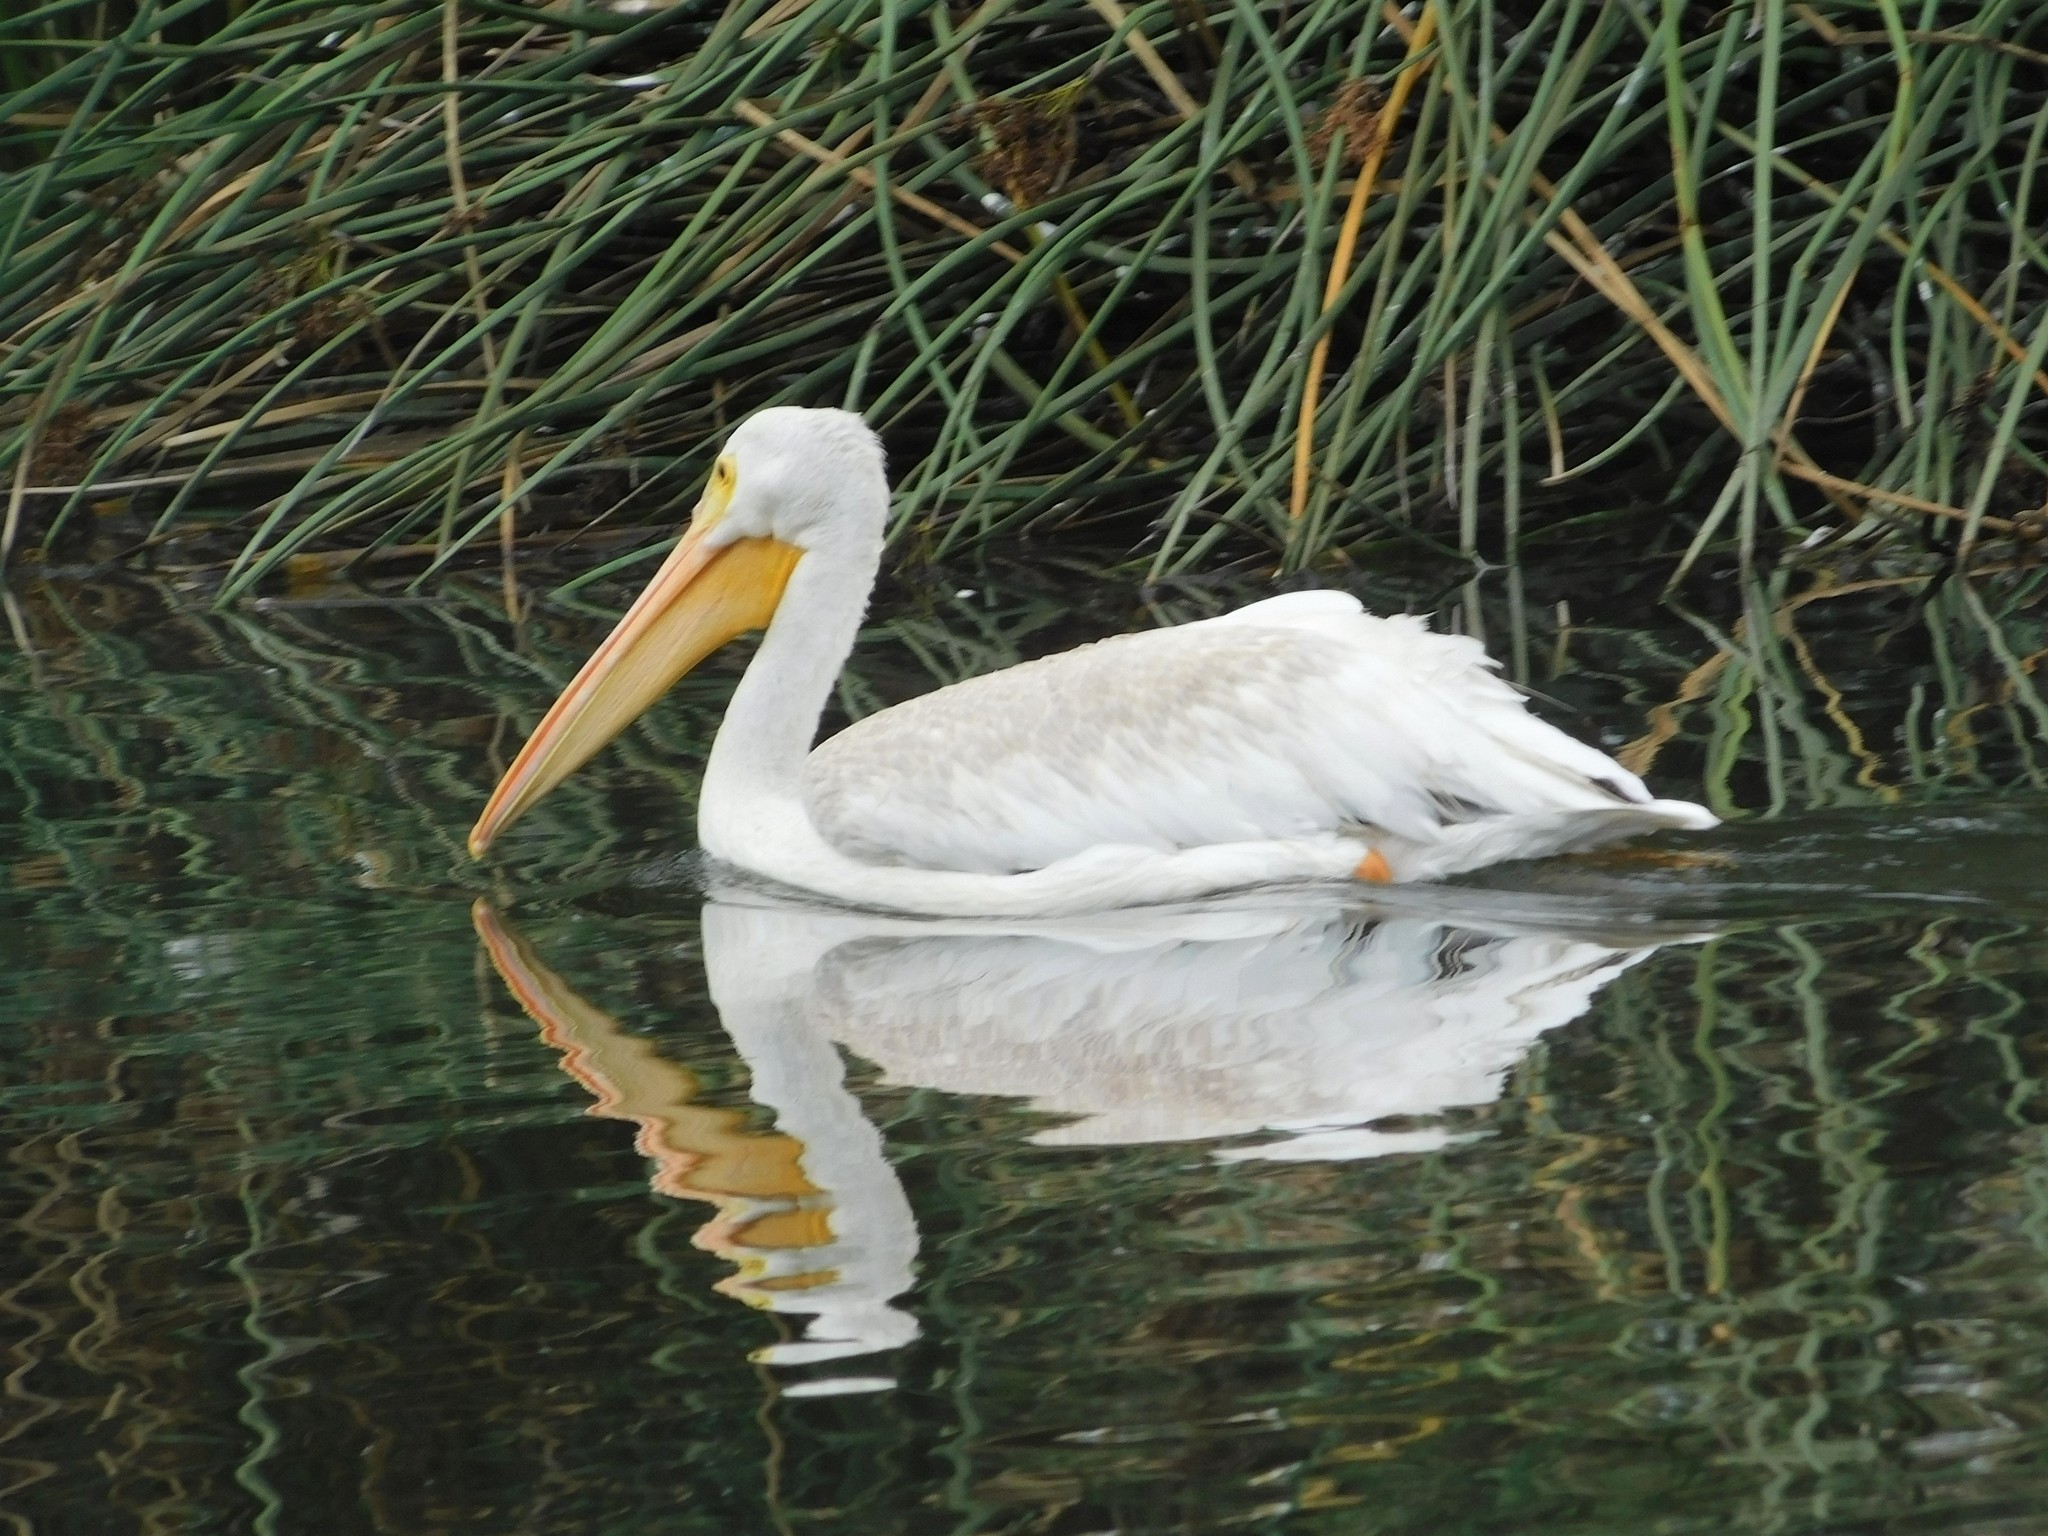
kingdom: Animalia
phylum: Chordata
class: Aves
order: Pelecaniformes
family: Pelecanidae
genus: Pelecanus
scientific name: Pelecanus erythrorhynchos
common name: American white pelican
